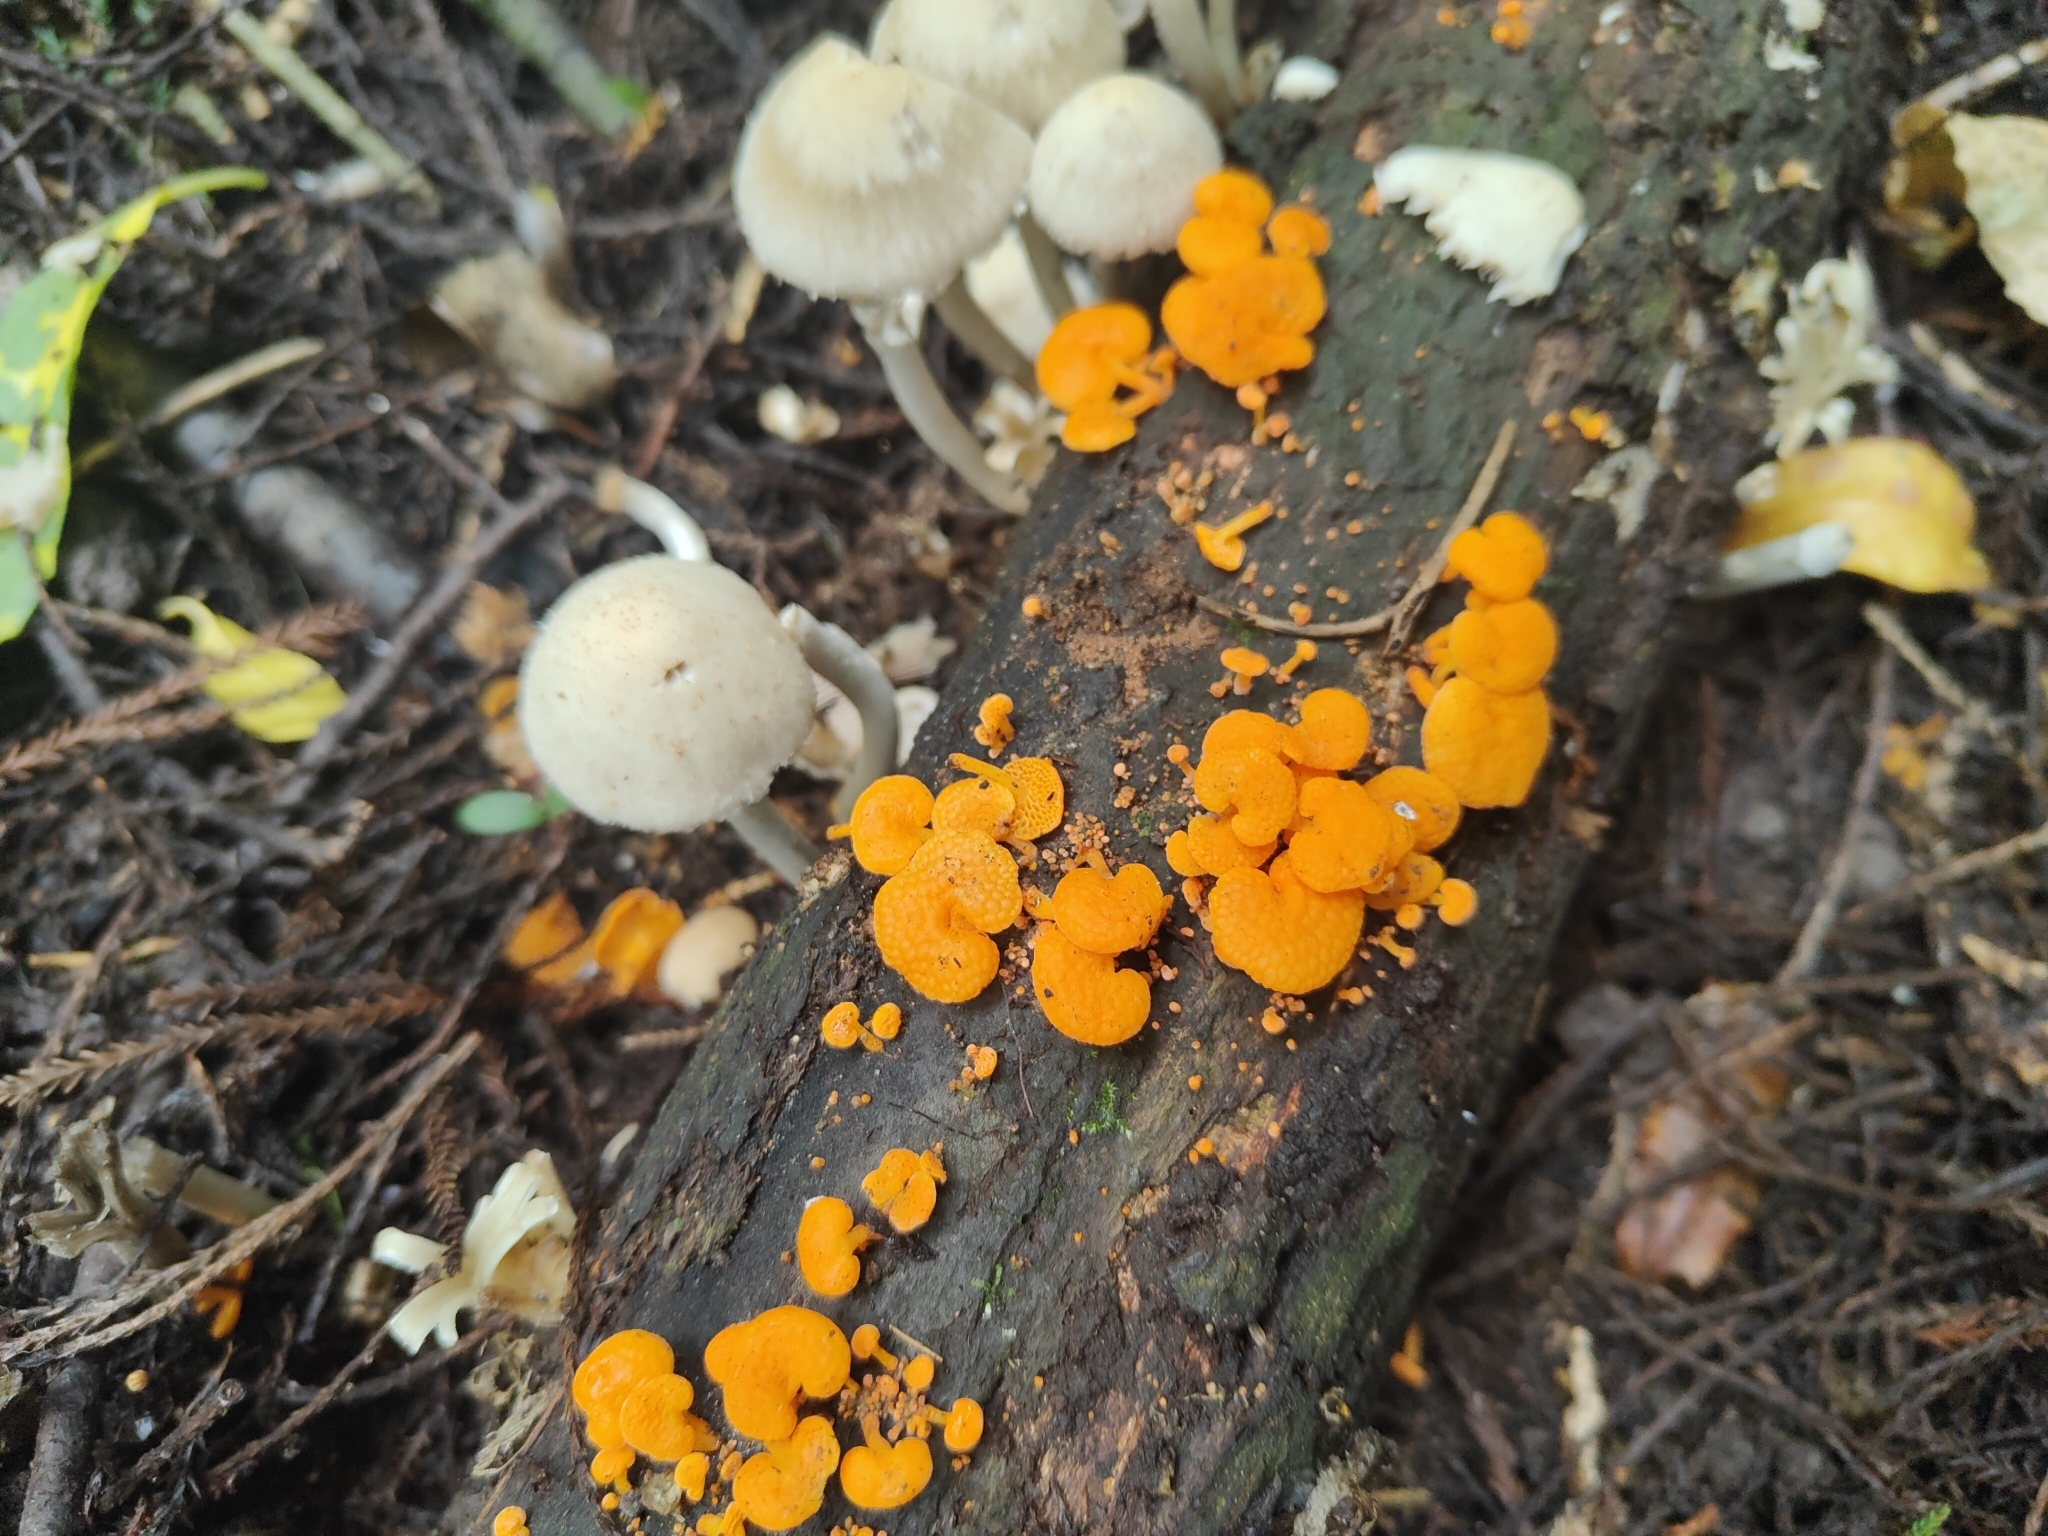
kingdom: Fungi
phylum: Basidiomycota
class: Agaricomycetes
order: Agaricales
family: Mycenaceae
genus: Favolaschia
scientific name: Favolaschia claudopus
